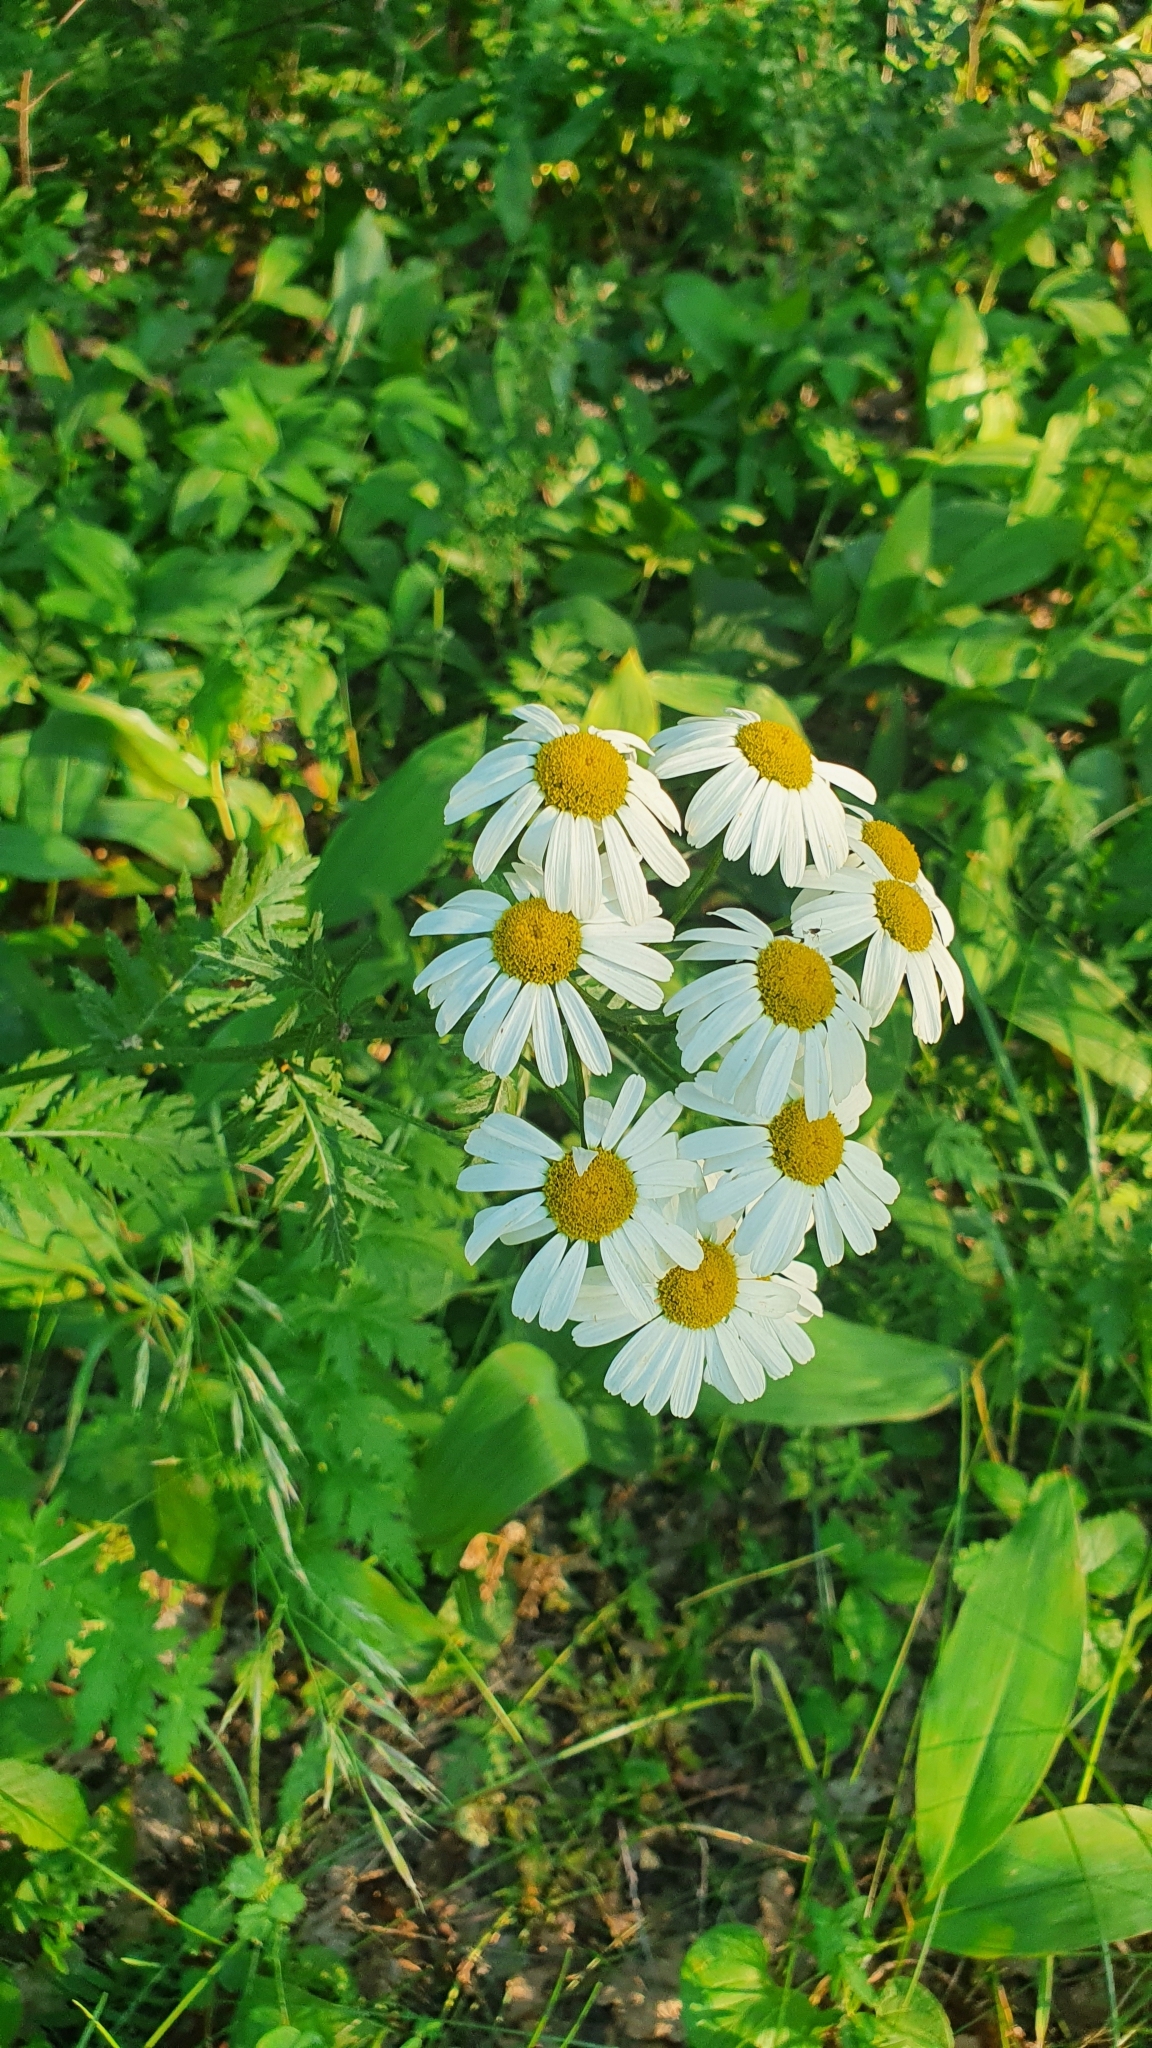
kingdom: Plantae
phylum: Tracheophyta
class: Magnoliopsida
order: Asterales
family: Asteraceae
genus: Tanacetum
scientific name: Tanacetum corymbosum
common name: Scentless feverfew
